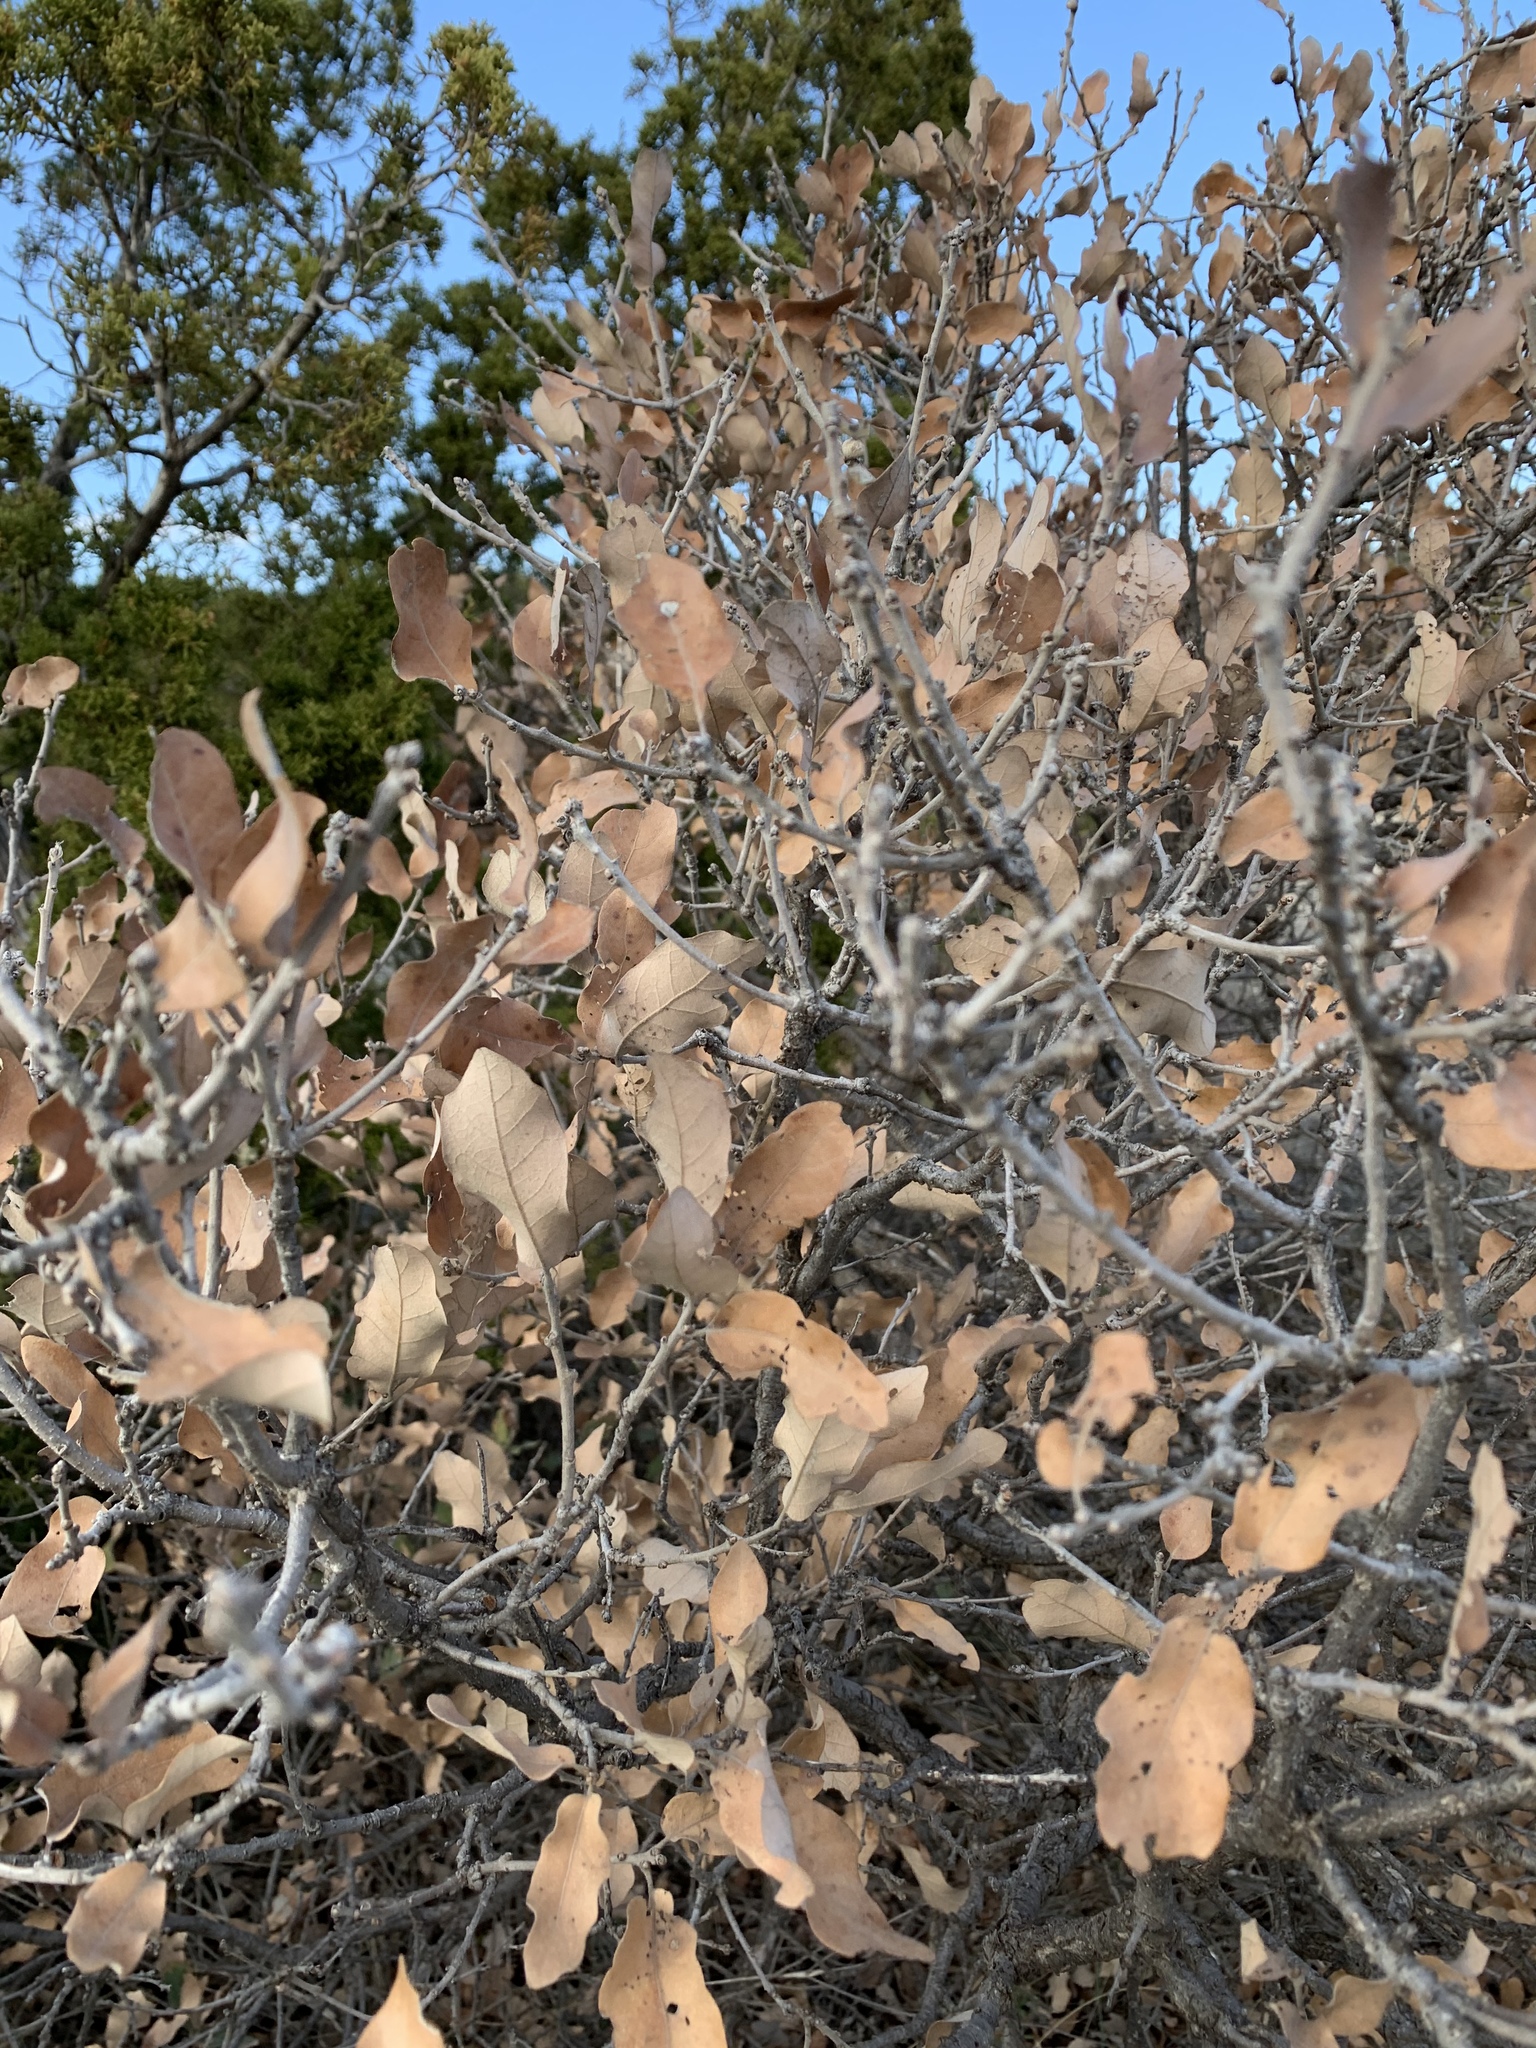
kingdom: Plantae
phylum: Tracheophyta
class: Magnoliopsida
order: Fagales
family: Fagaceae
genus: Quercus
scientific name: Quercus havardii
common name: Shinnery oak
